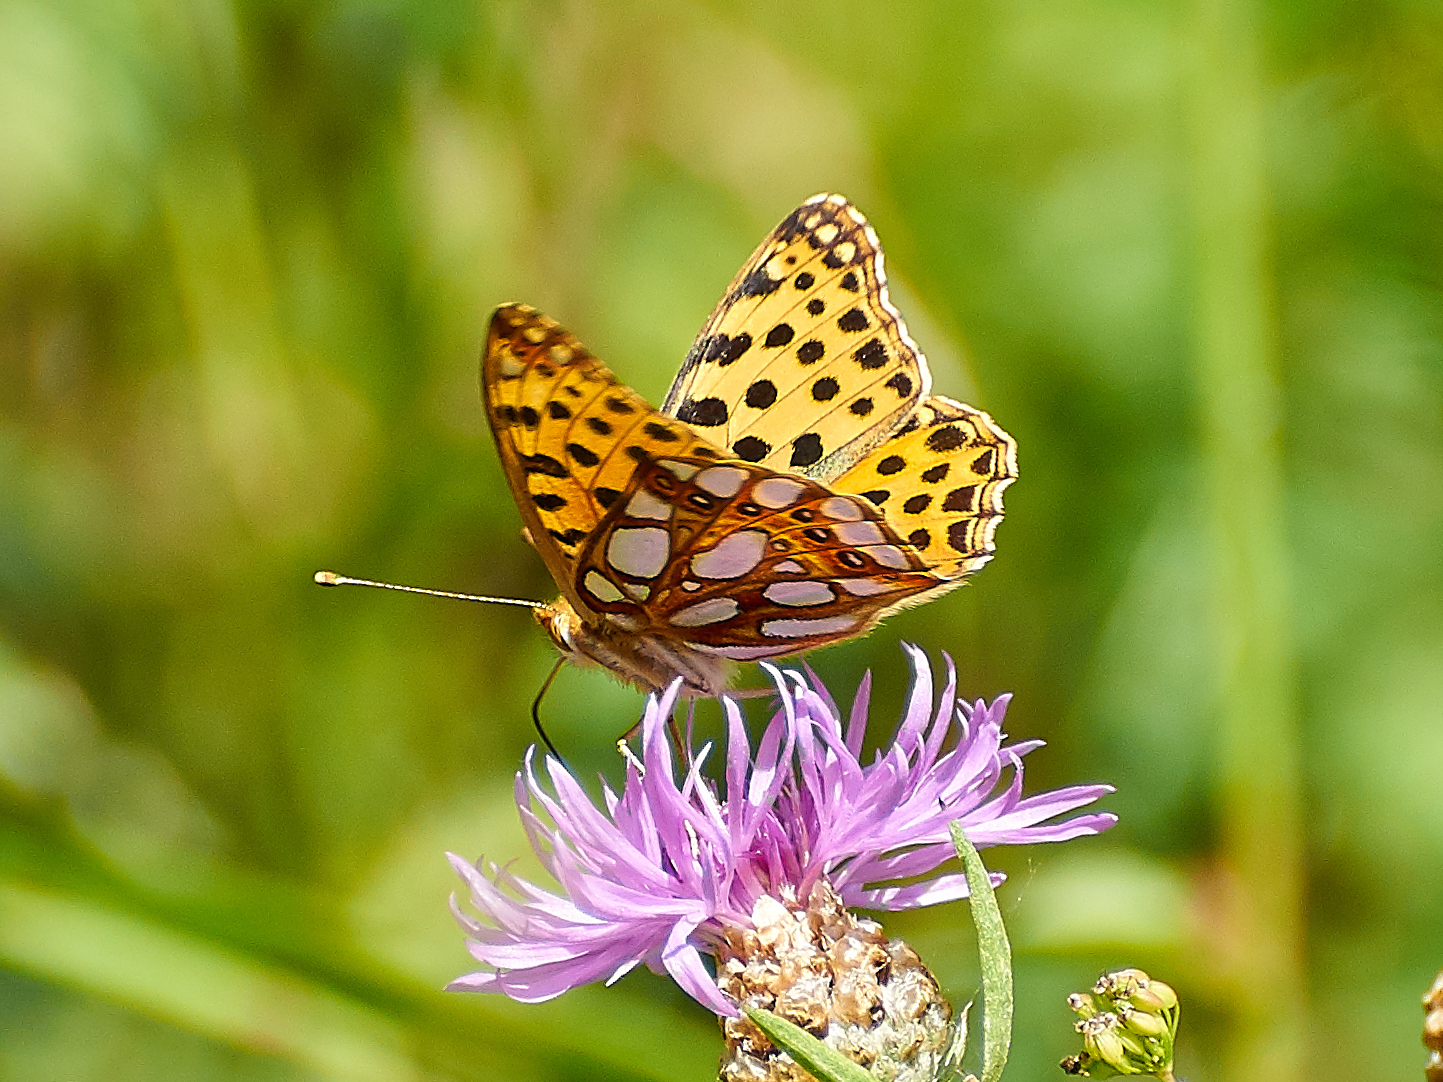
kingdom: Animalia
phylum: Arthropoda
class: Insecta
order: Lepidoptera
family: Nymphalidae
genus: Issoria
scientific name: Issoria lathonia
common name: Queen of spain fritillary
